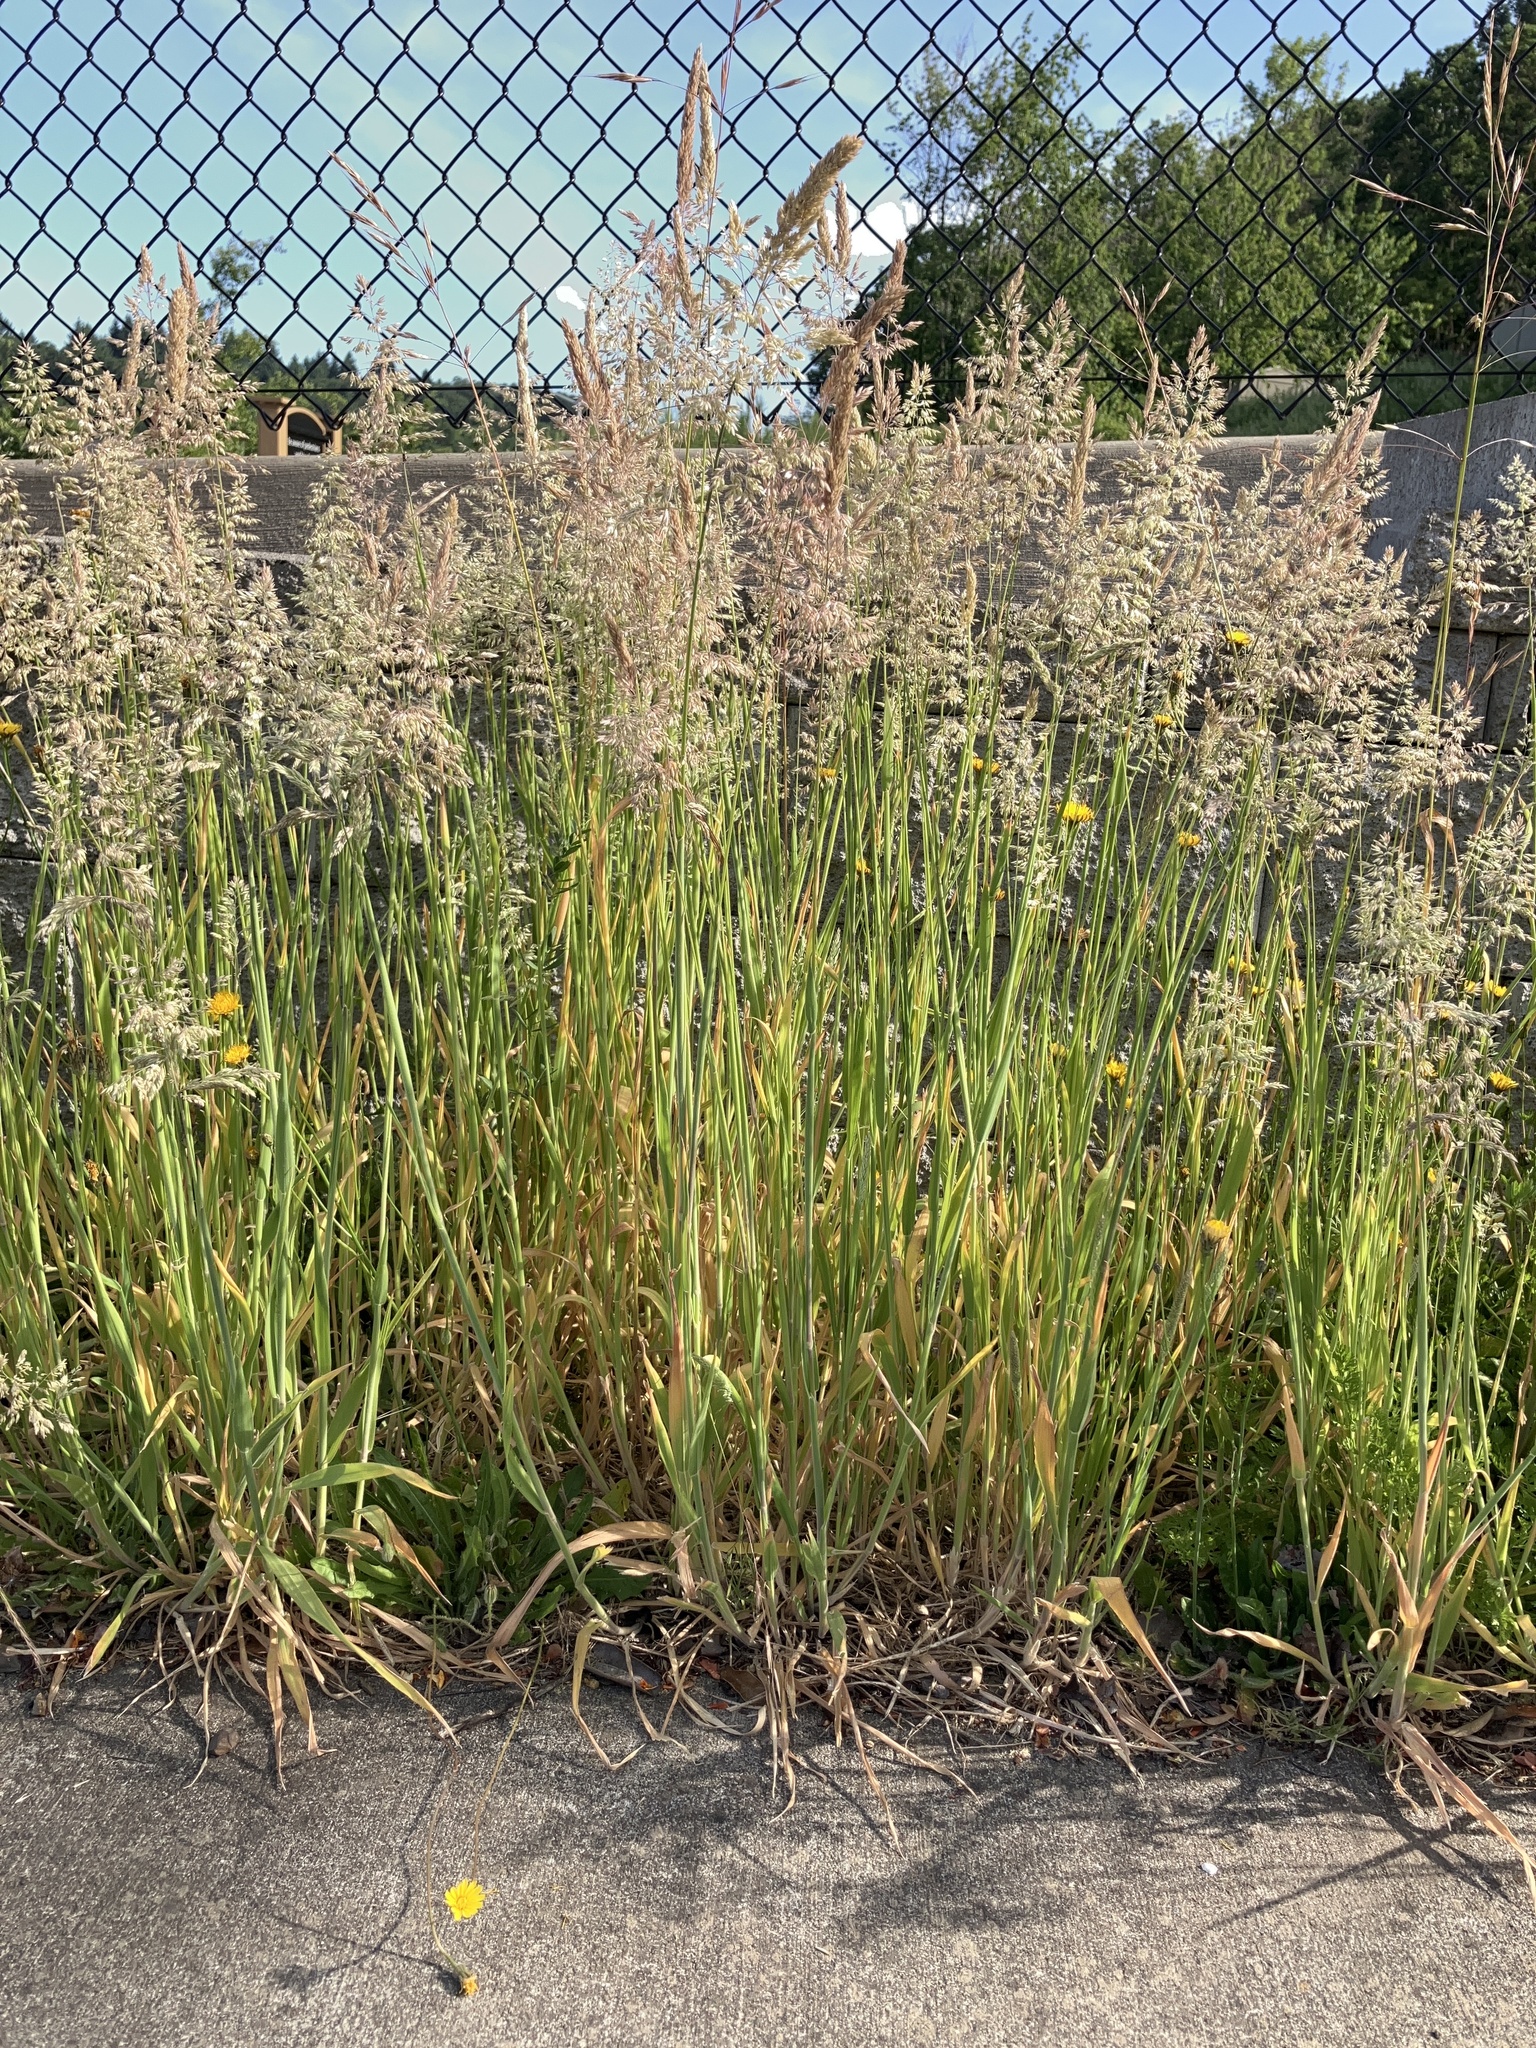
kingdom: Plantae
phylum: Tracheophyta
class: Liliopsida
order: Poales
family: Poaceae
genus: Holcus
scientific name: Holcus lanatus
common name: Yorkshire-fog
